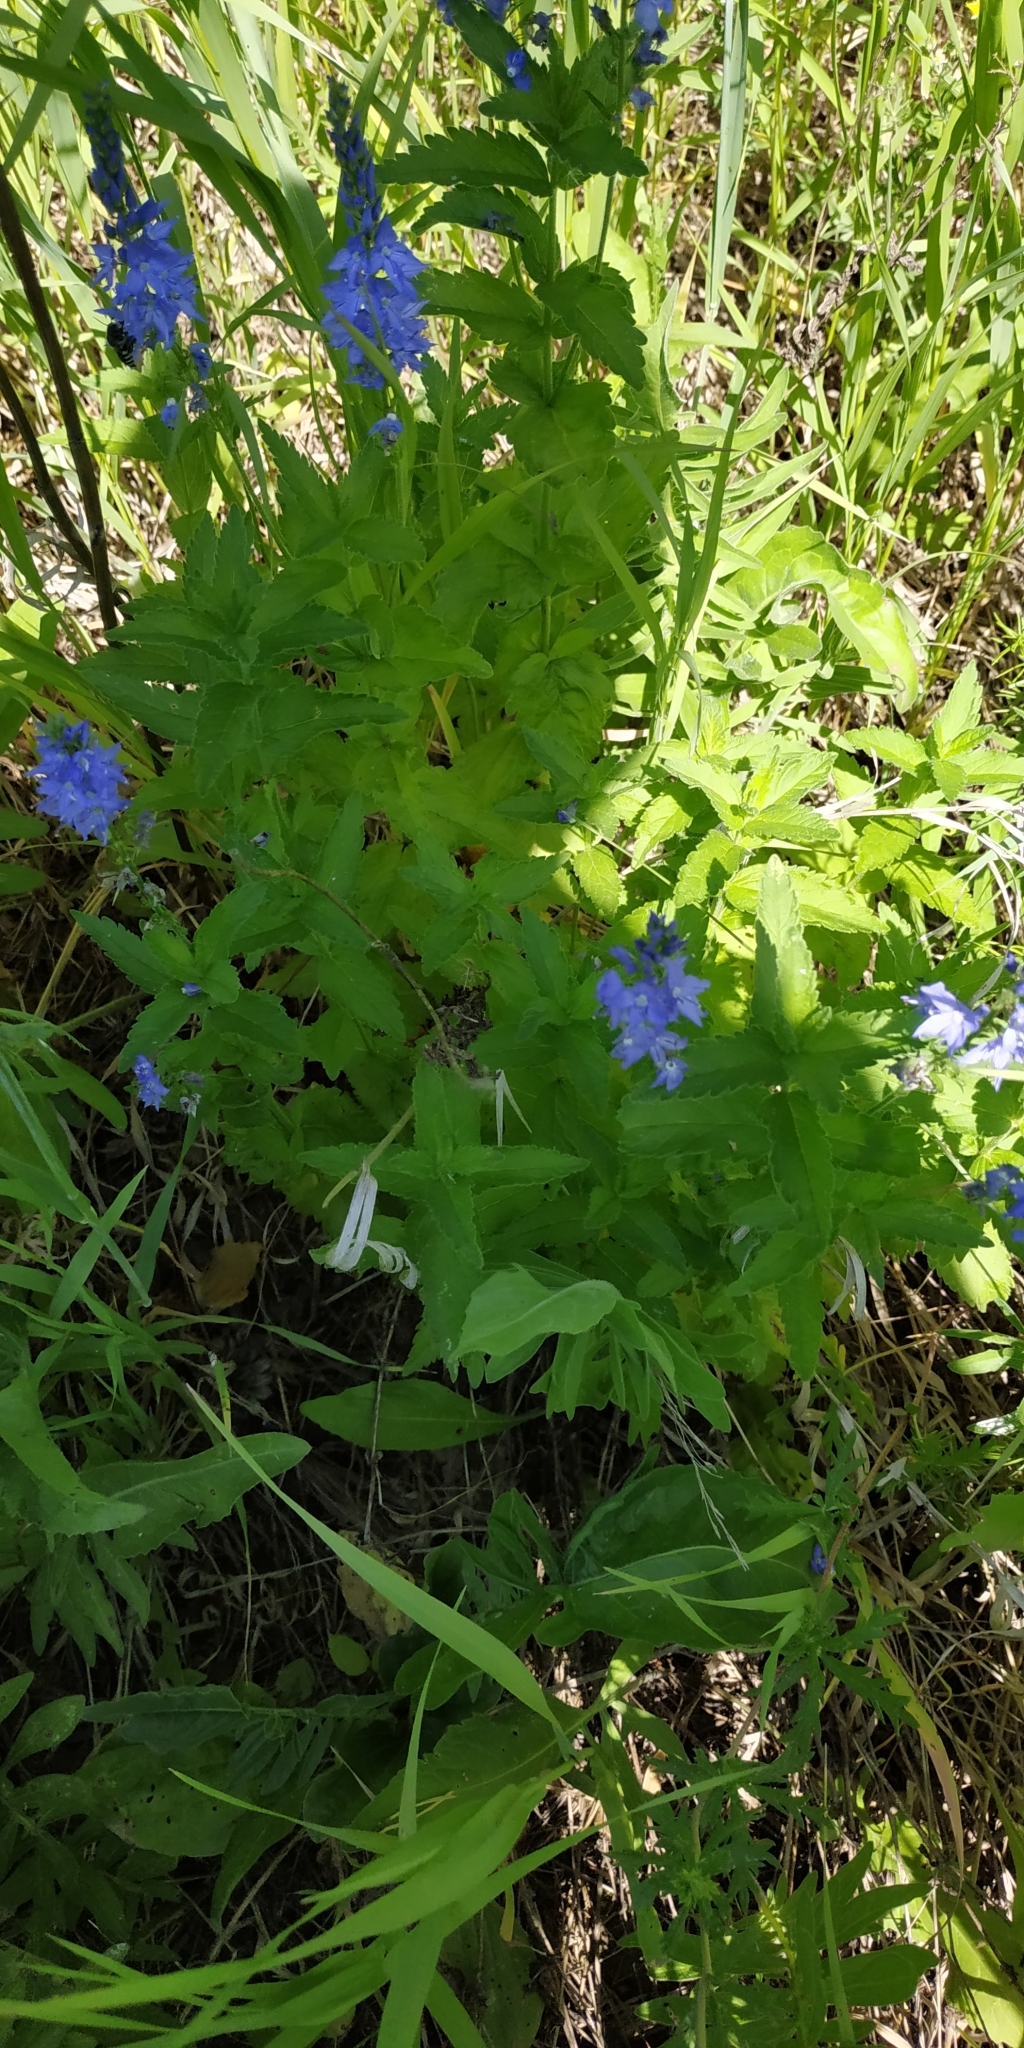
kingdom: Plantae
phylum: Tracheophyta
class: Magnoliopsida
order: Lamiales
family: Plantaginaceae
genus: Veronica
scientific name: Veronica teucrium
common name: Large speedwell
